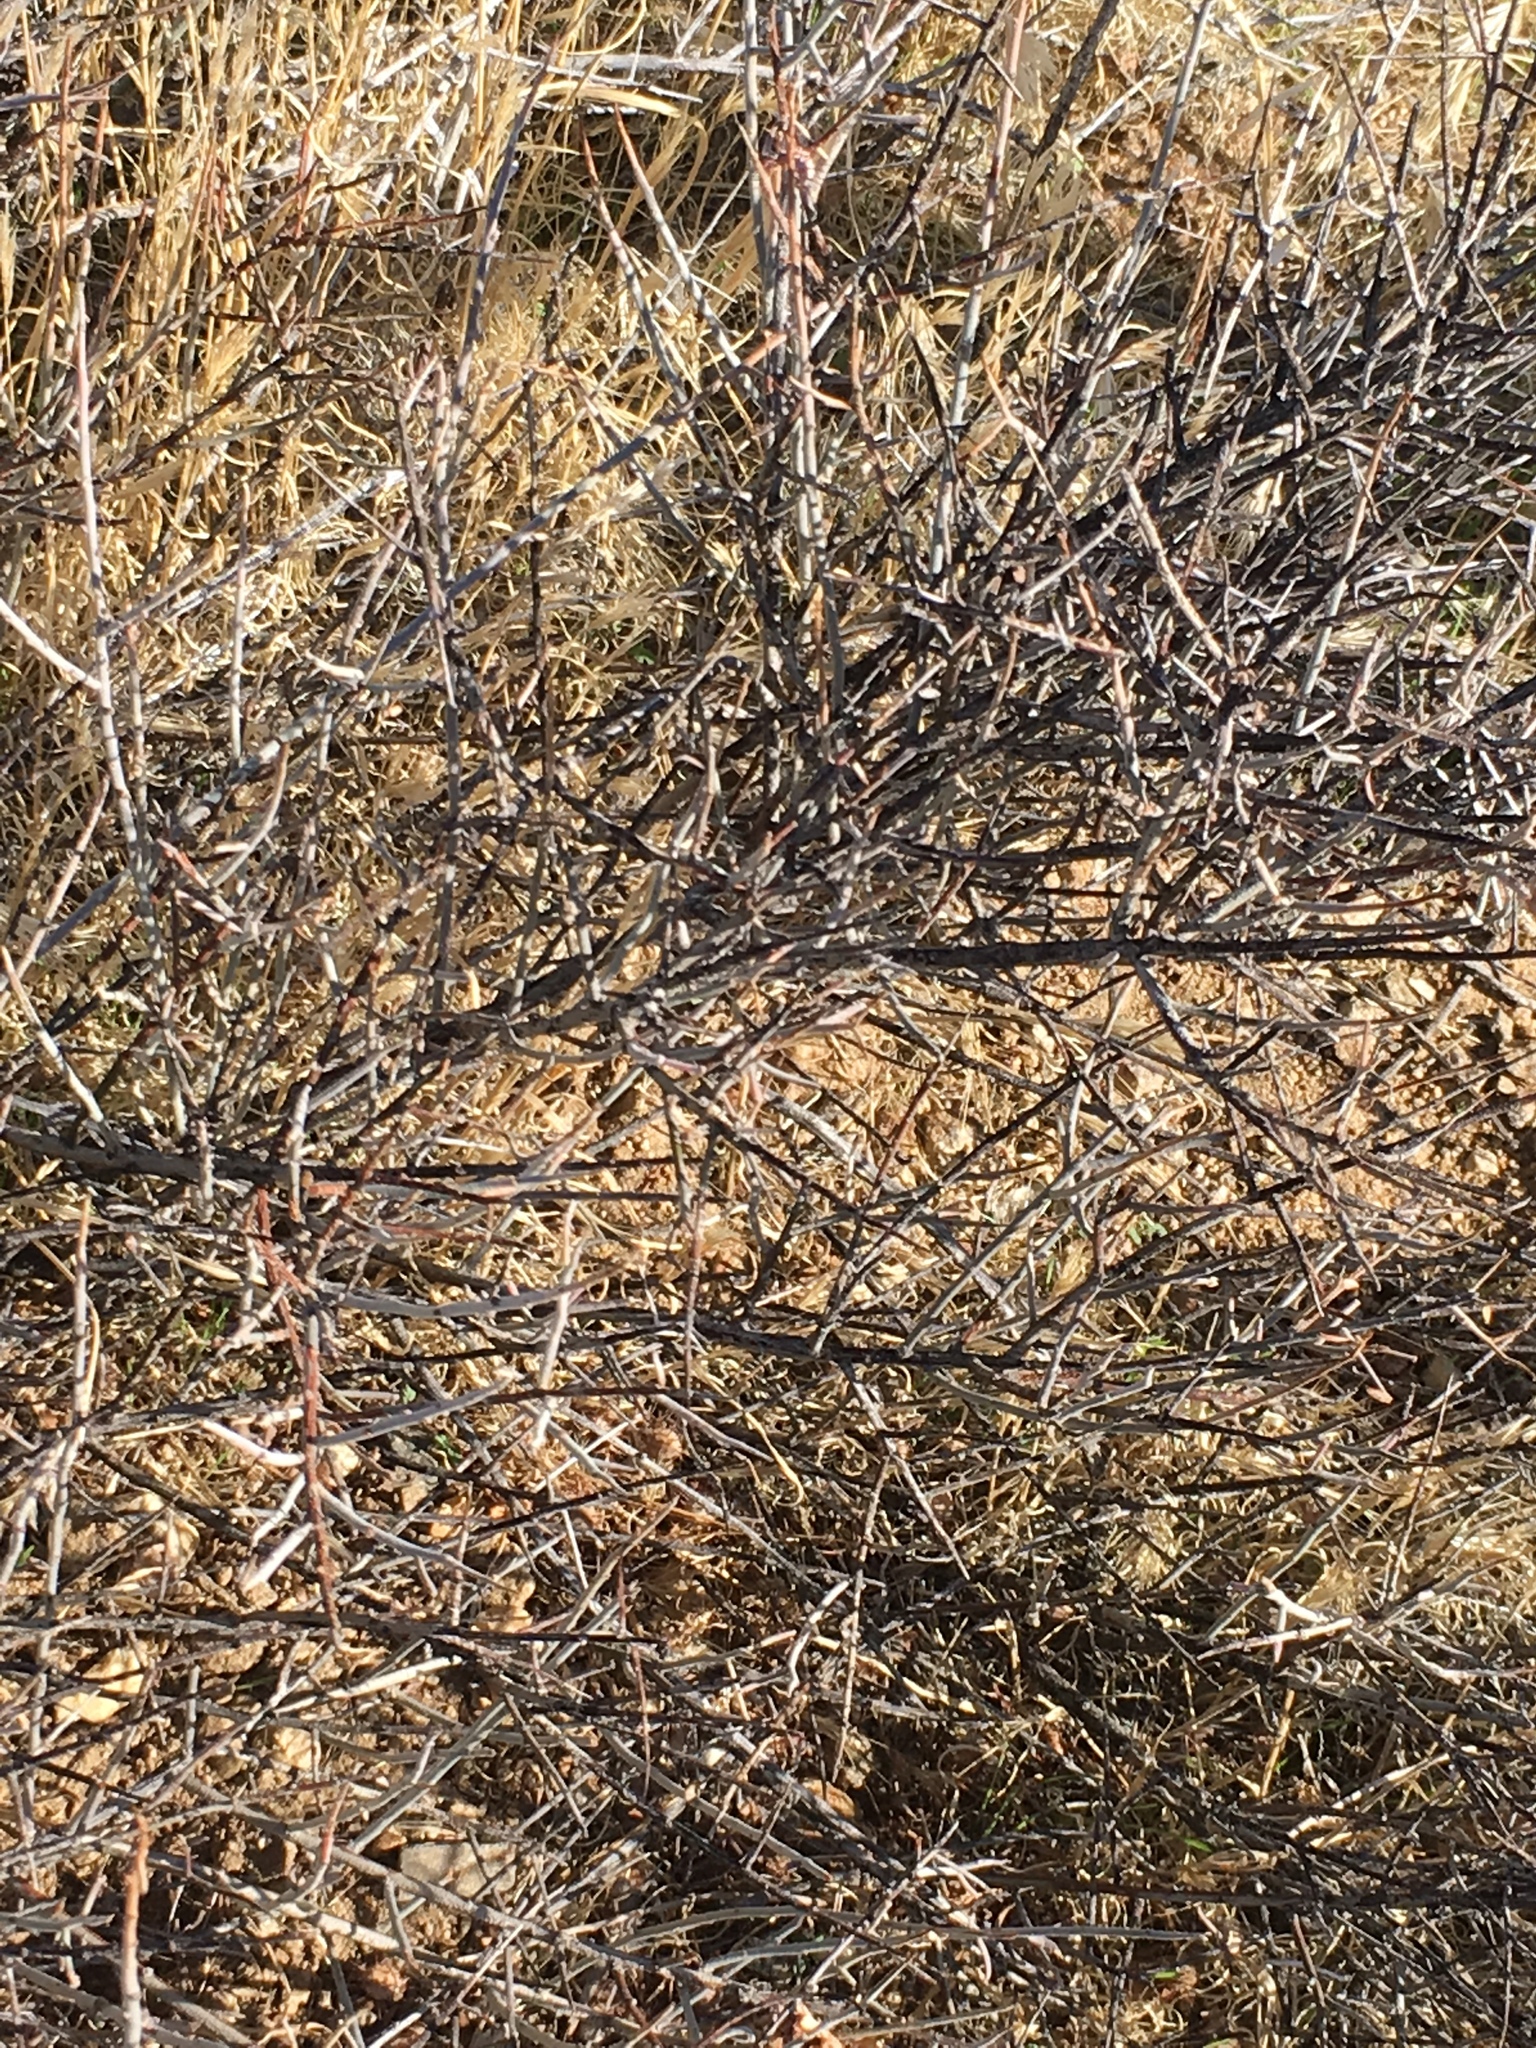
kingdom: Plantae
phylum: Tracheophyta
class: Magnoliopsida
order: Zygophyllales
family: Krameriaceae
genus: Krameria
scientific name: Krameria bicolor
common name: White ratany
